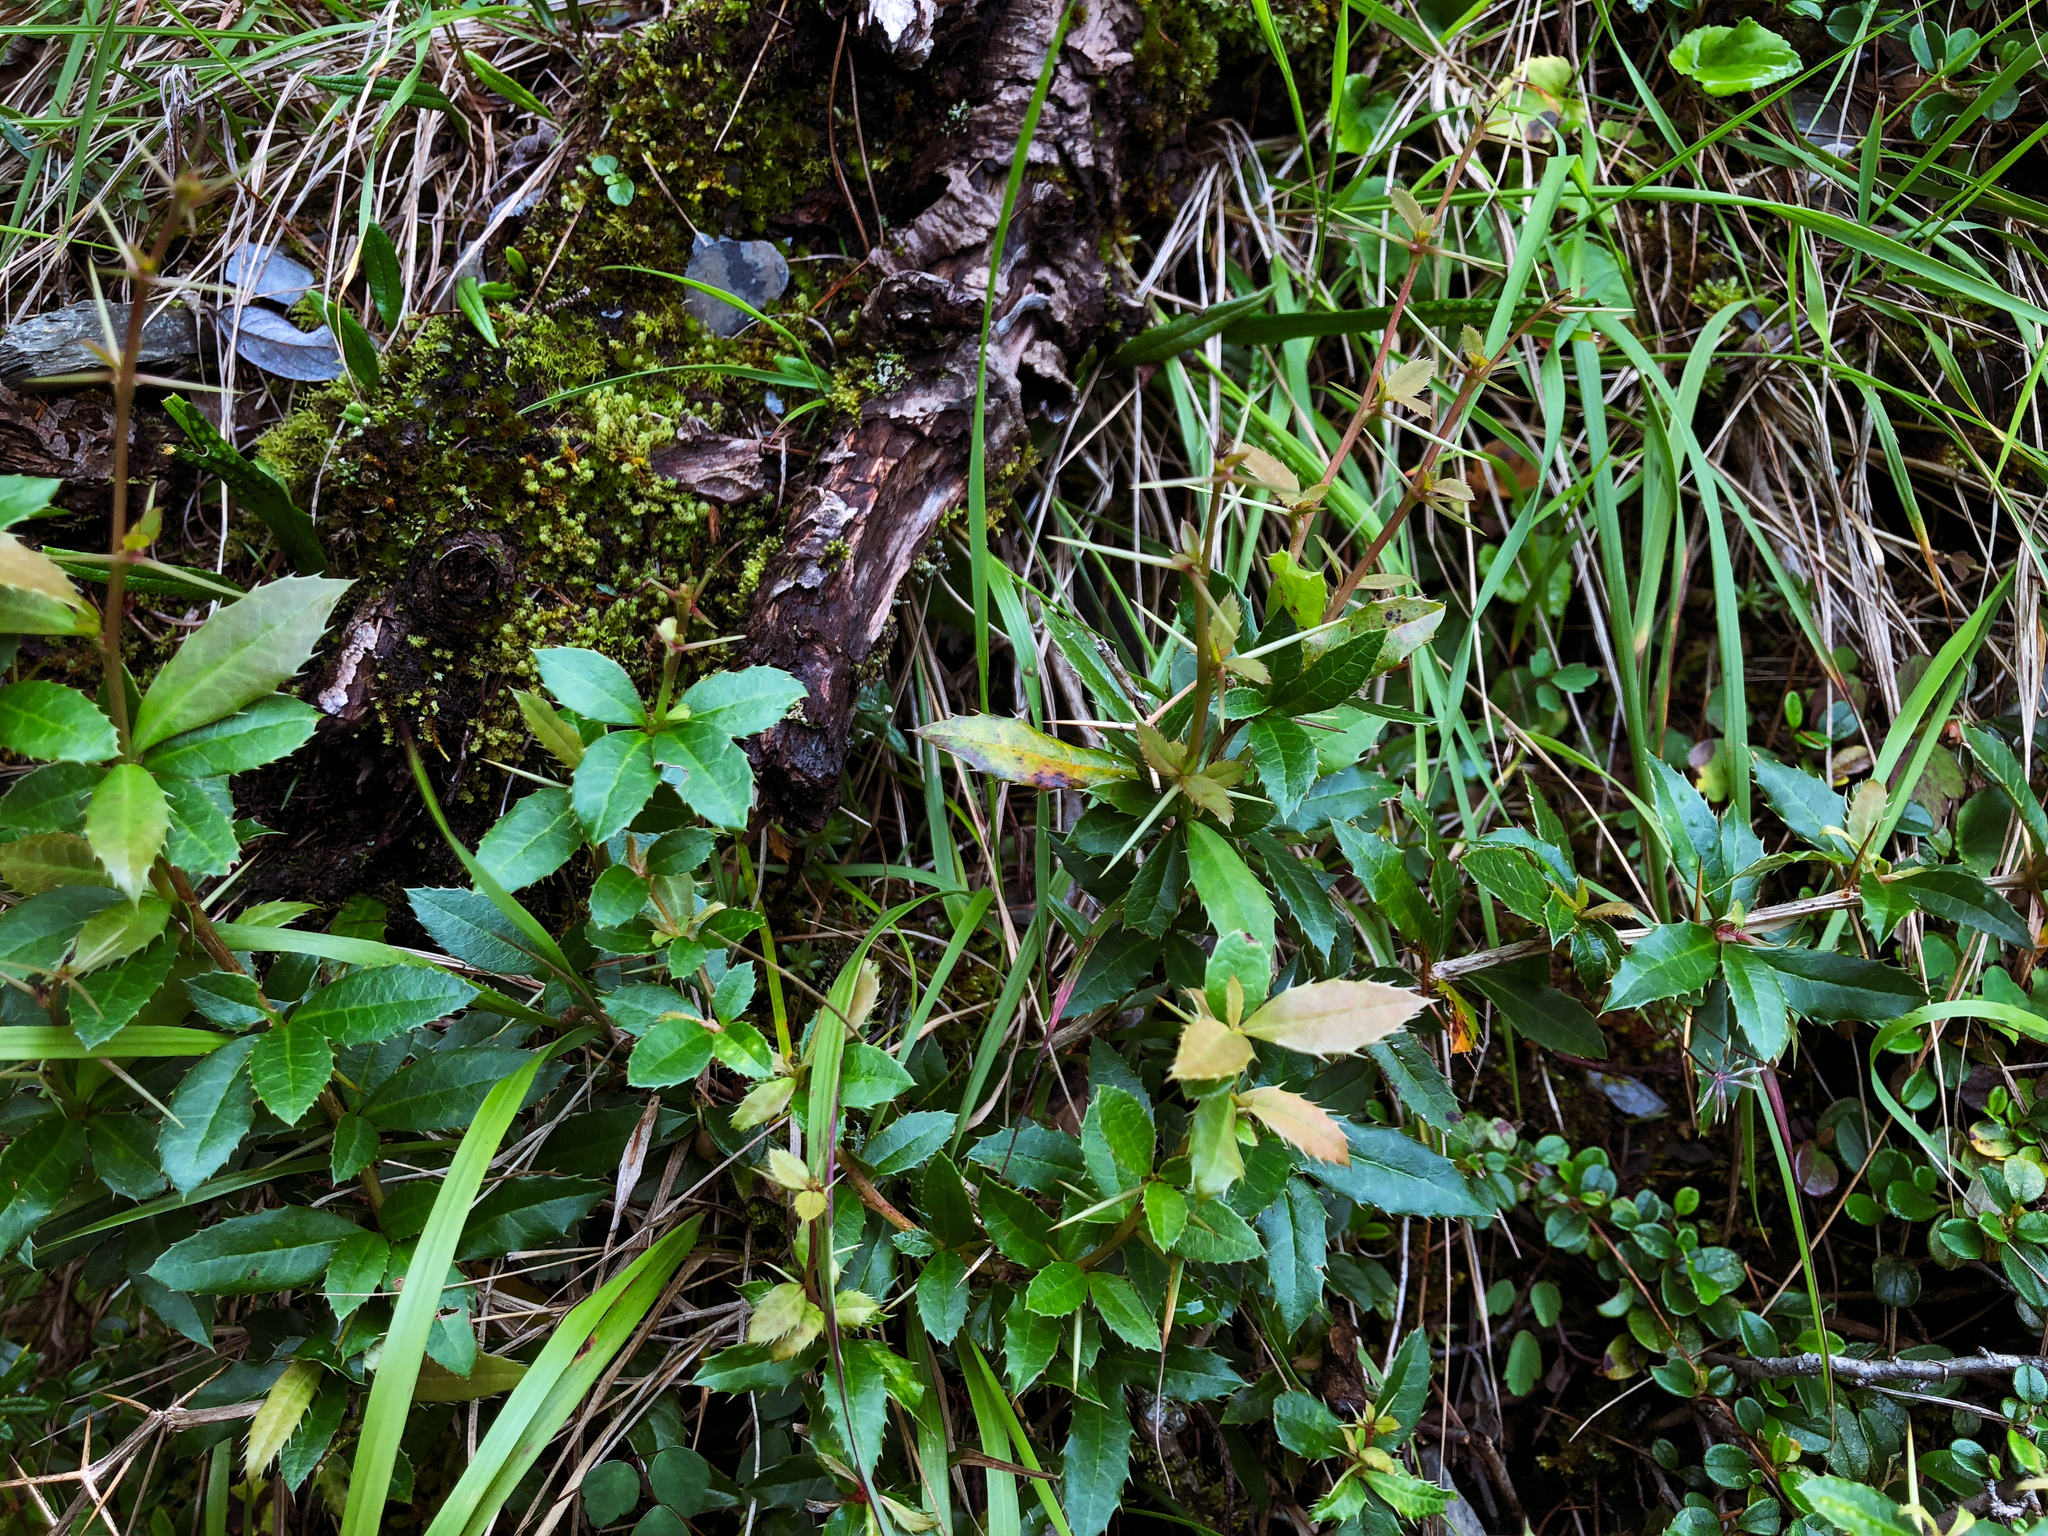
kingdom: Plantae
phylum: Tracheophyta
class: Magnoliopsida
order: Ranunculales
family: Berberidaceae
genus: Berberis
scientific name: Berberis kawakamii
